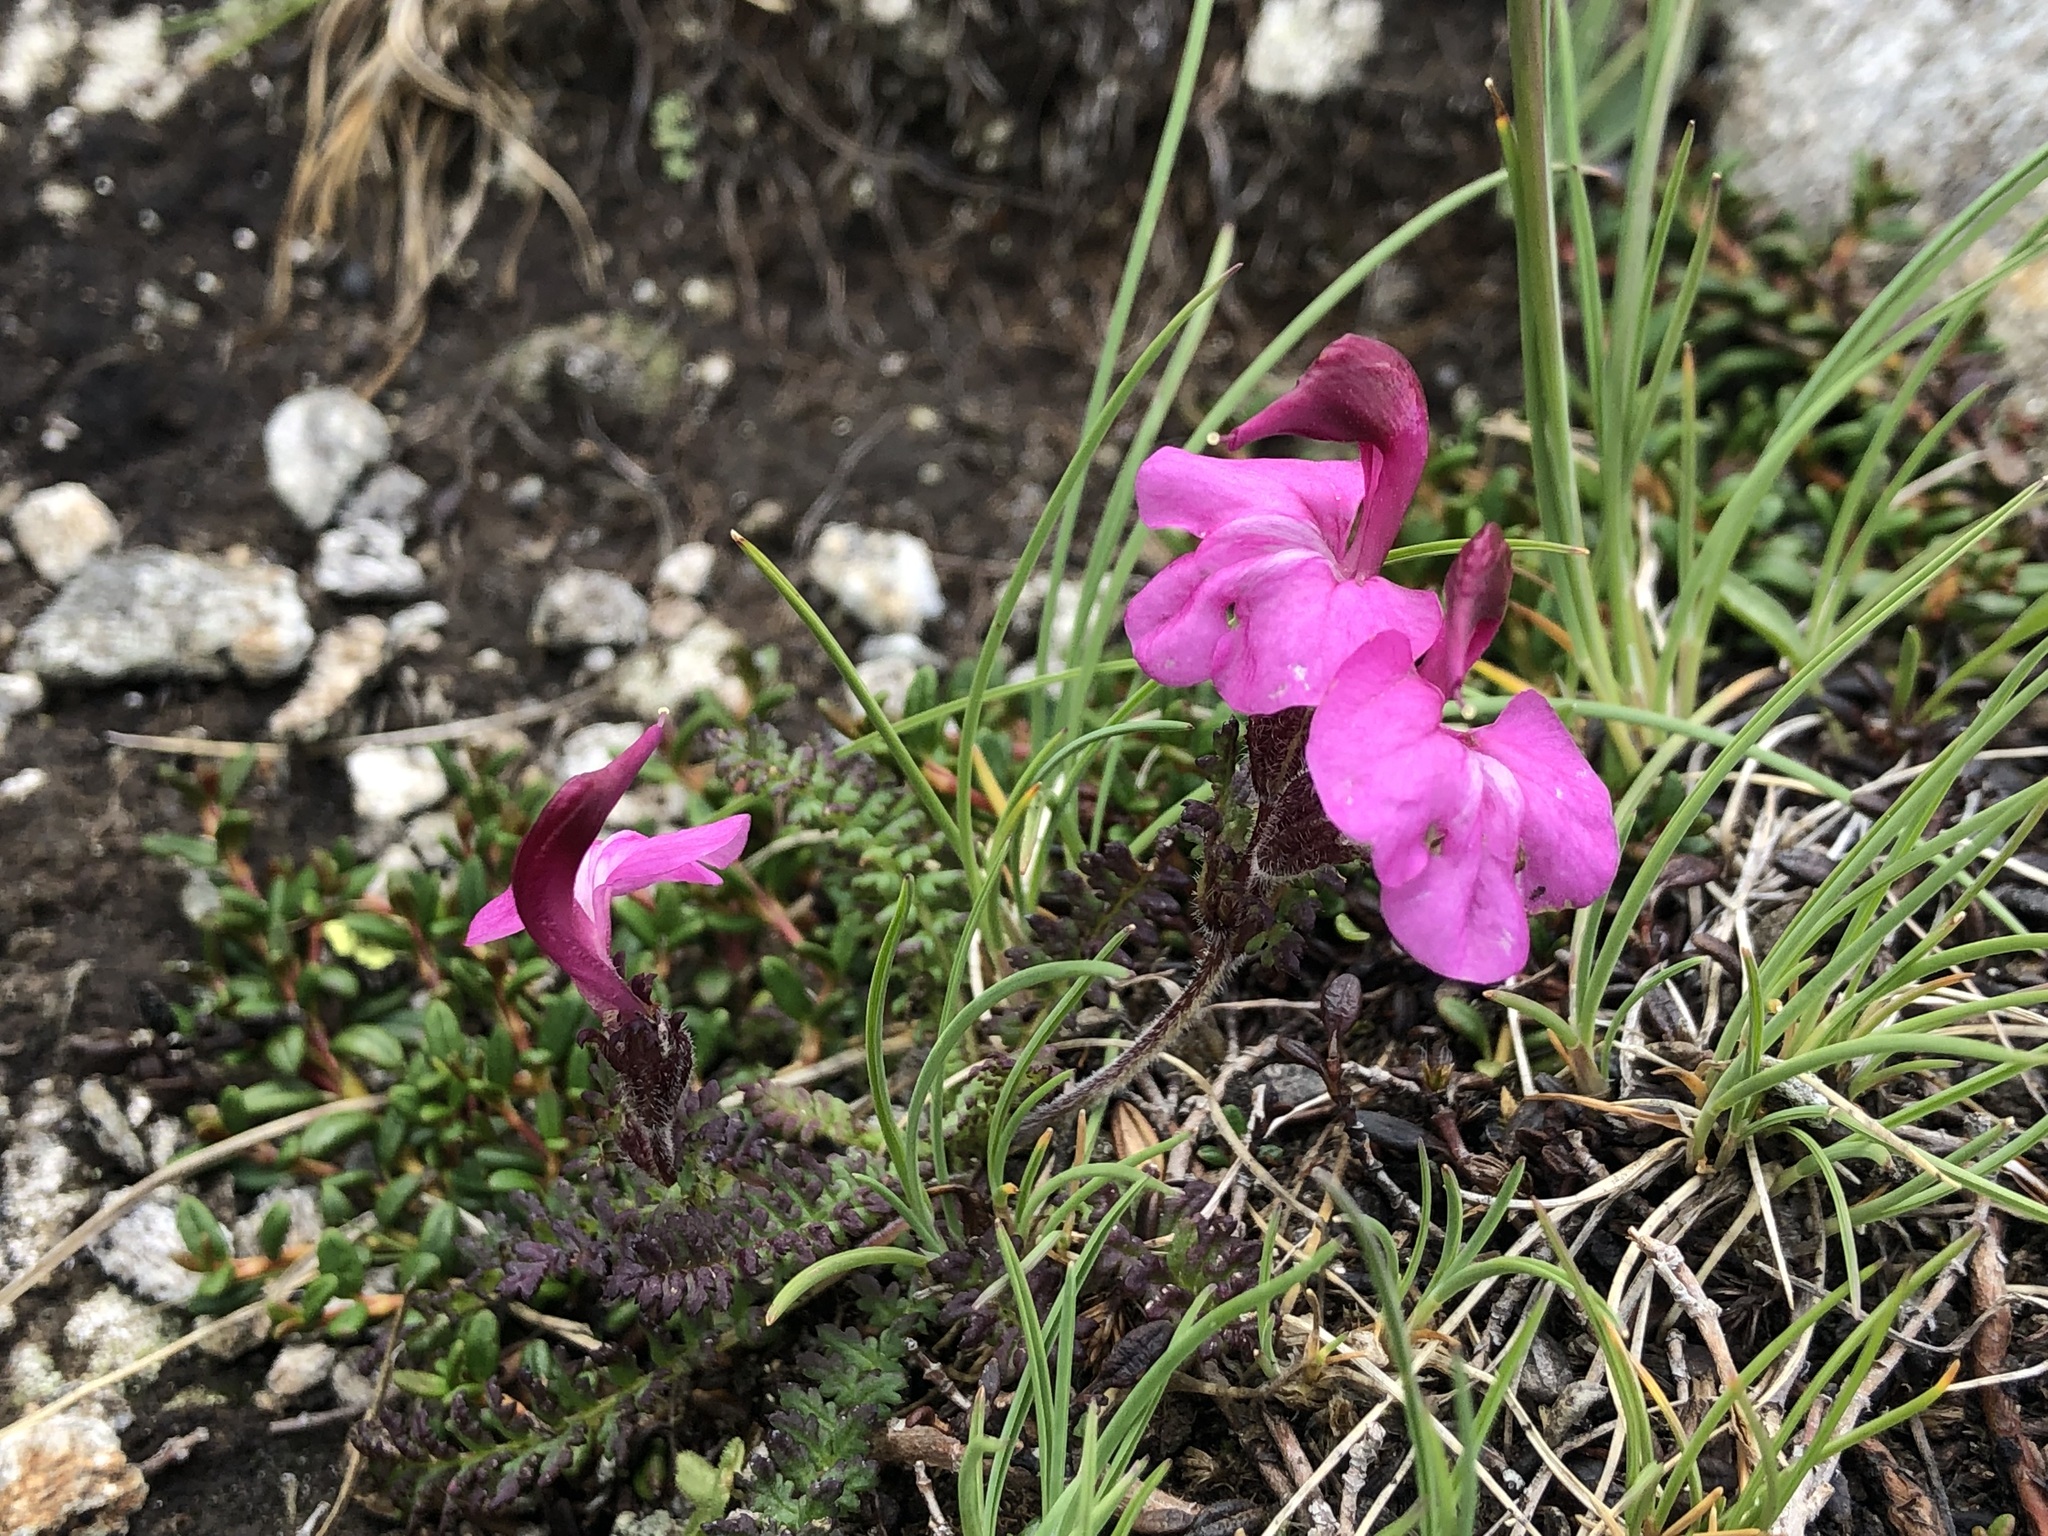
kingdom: Plantae
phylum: Tracheophyta
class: Magnoliopsida
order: Lamiales
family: Orobanchaceae
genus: Pedicularis
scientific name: Pedicularis kerneri
